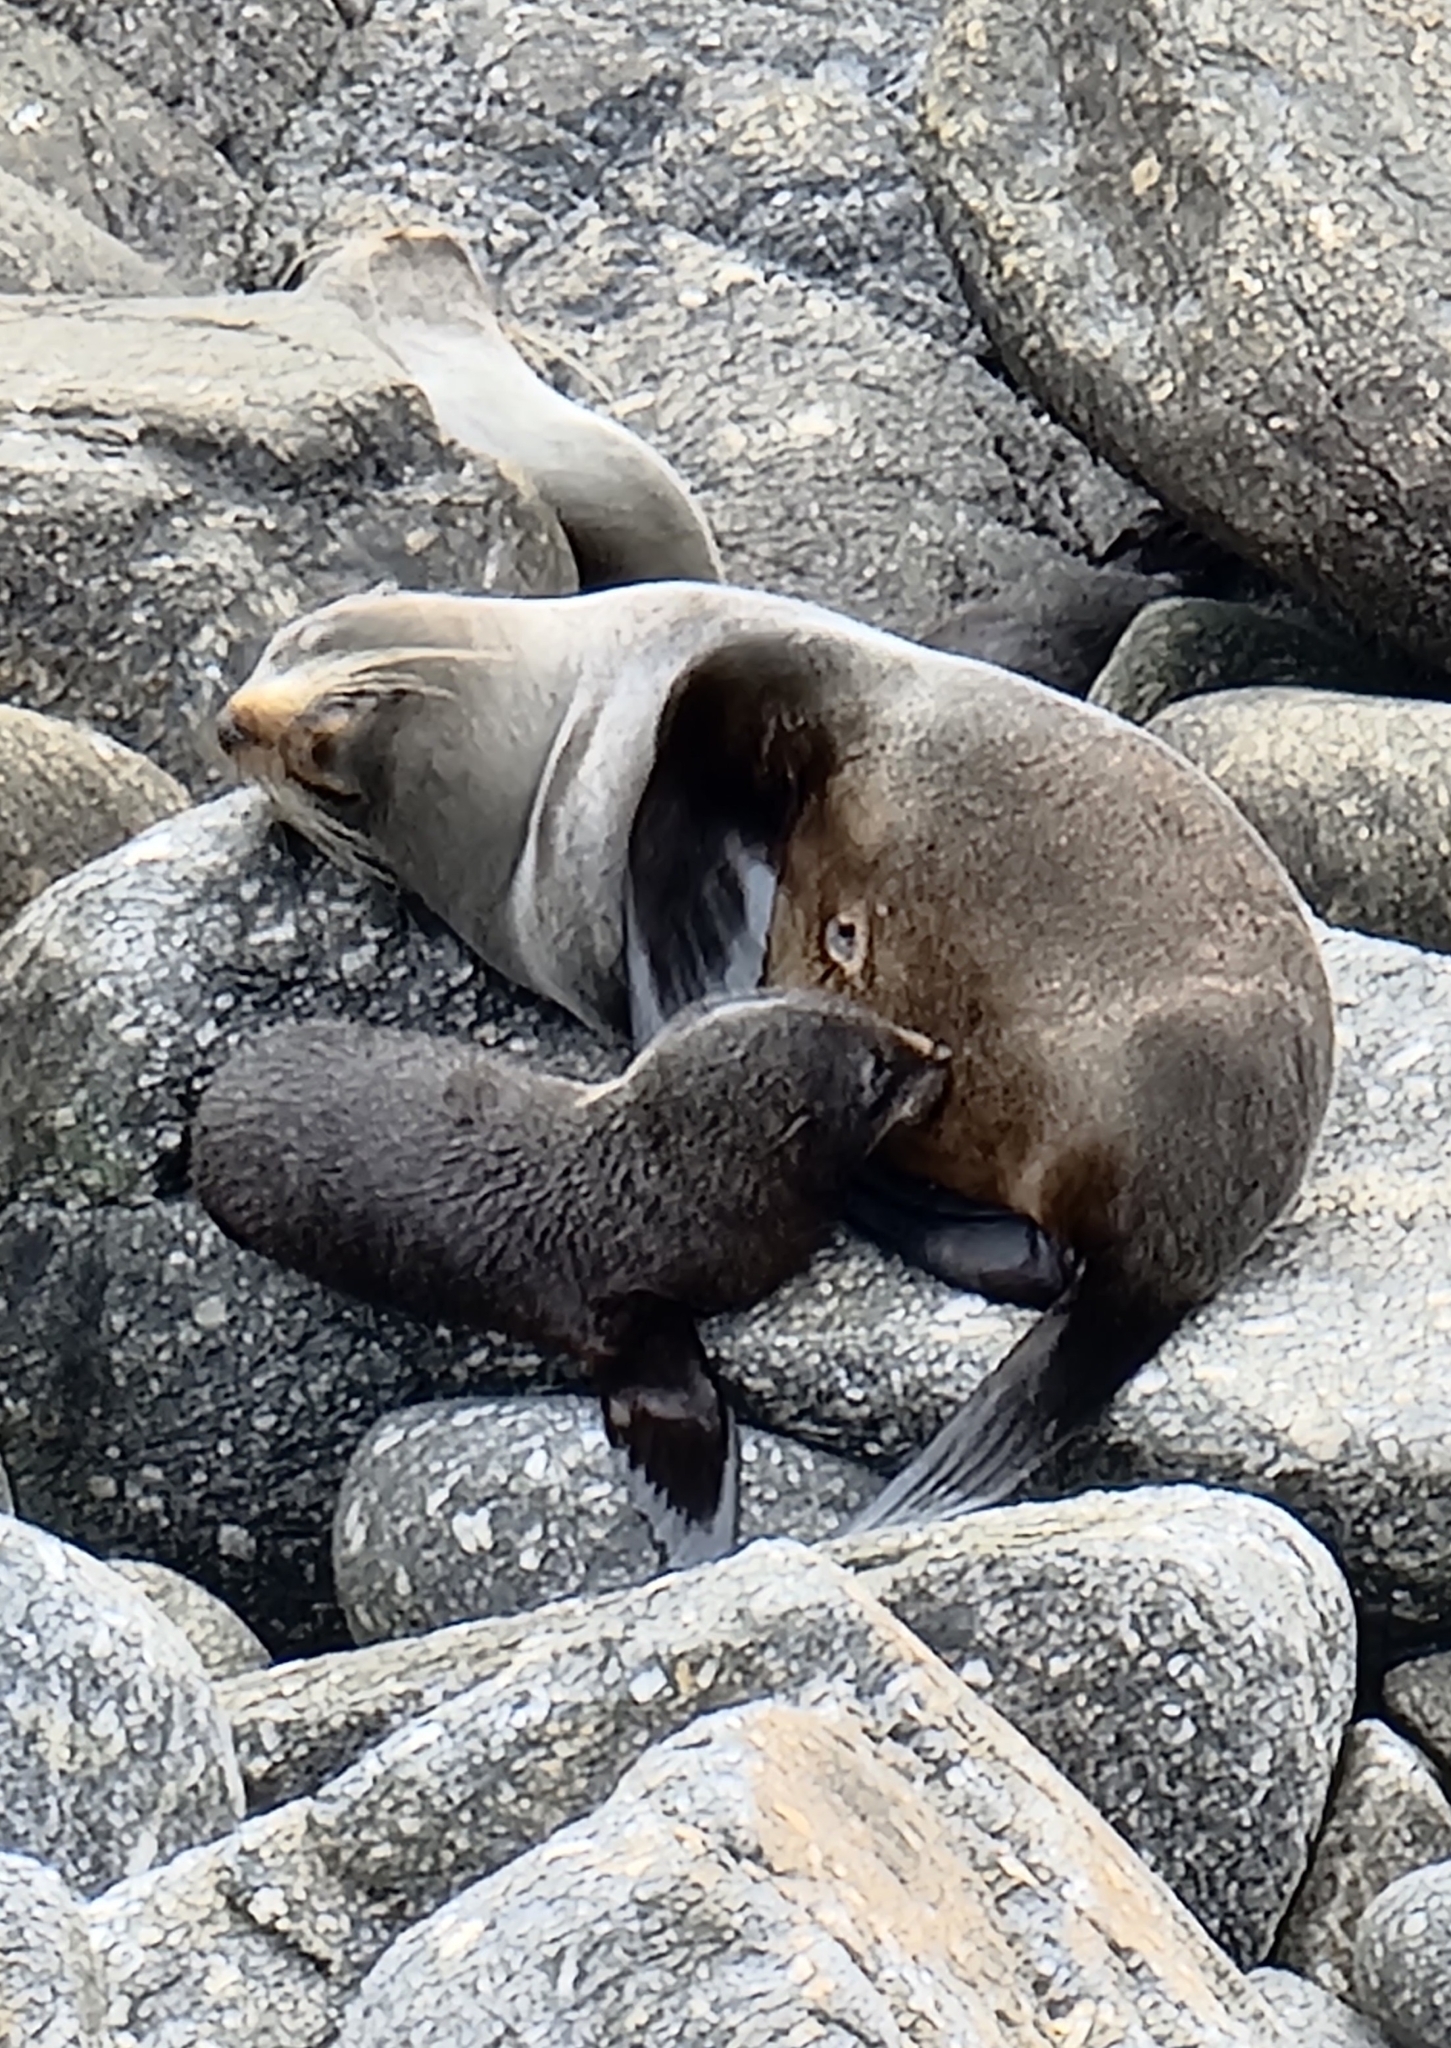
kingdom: Animalia
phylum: Chordata
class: Mammalia
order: Carnivora
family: Otariidae
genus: Arctocephalus
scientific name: Arctocephalus forsteri
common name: New zealand fur seal
